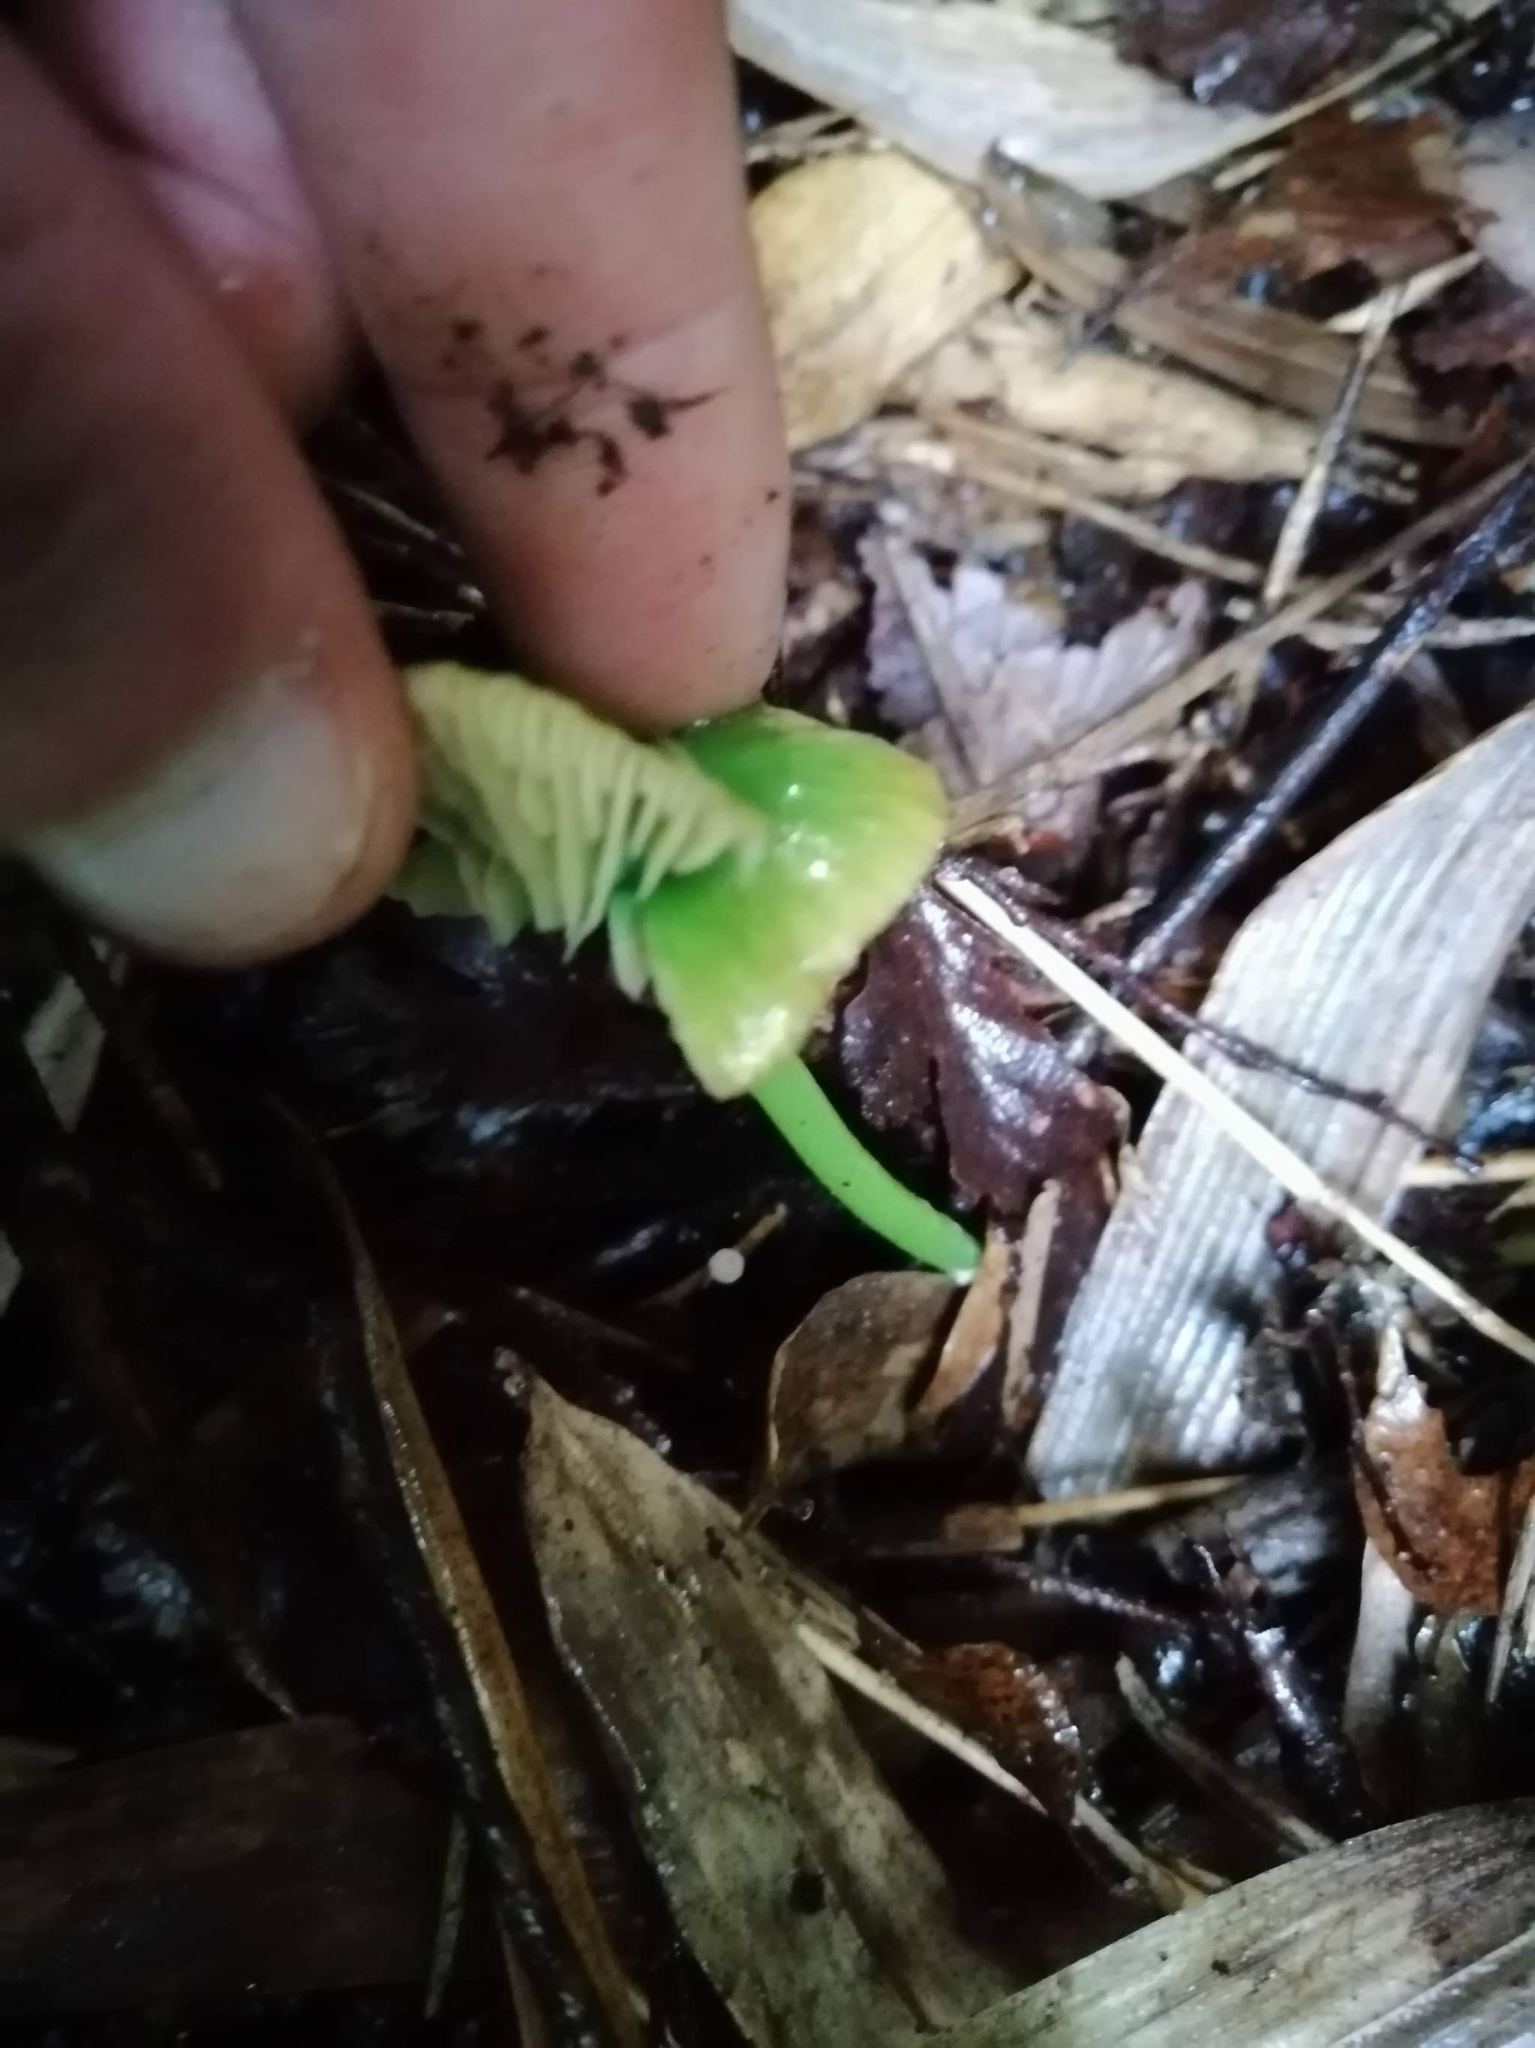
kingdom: Fungi
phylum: Basidiomycota
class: Agaricomycetes
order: Agaricales
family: Entolomataceae
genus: Entoloma
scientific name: Entoloma necopinatum
